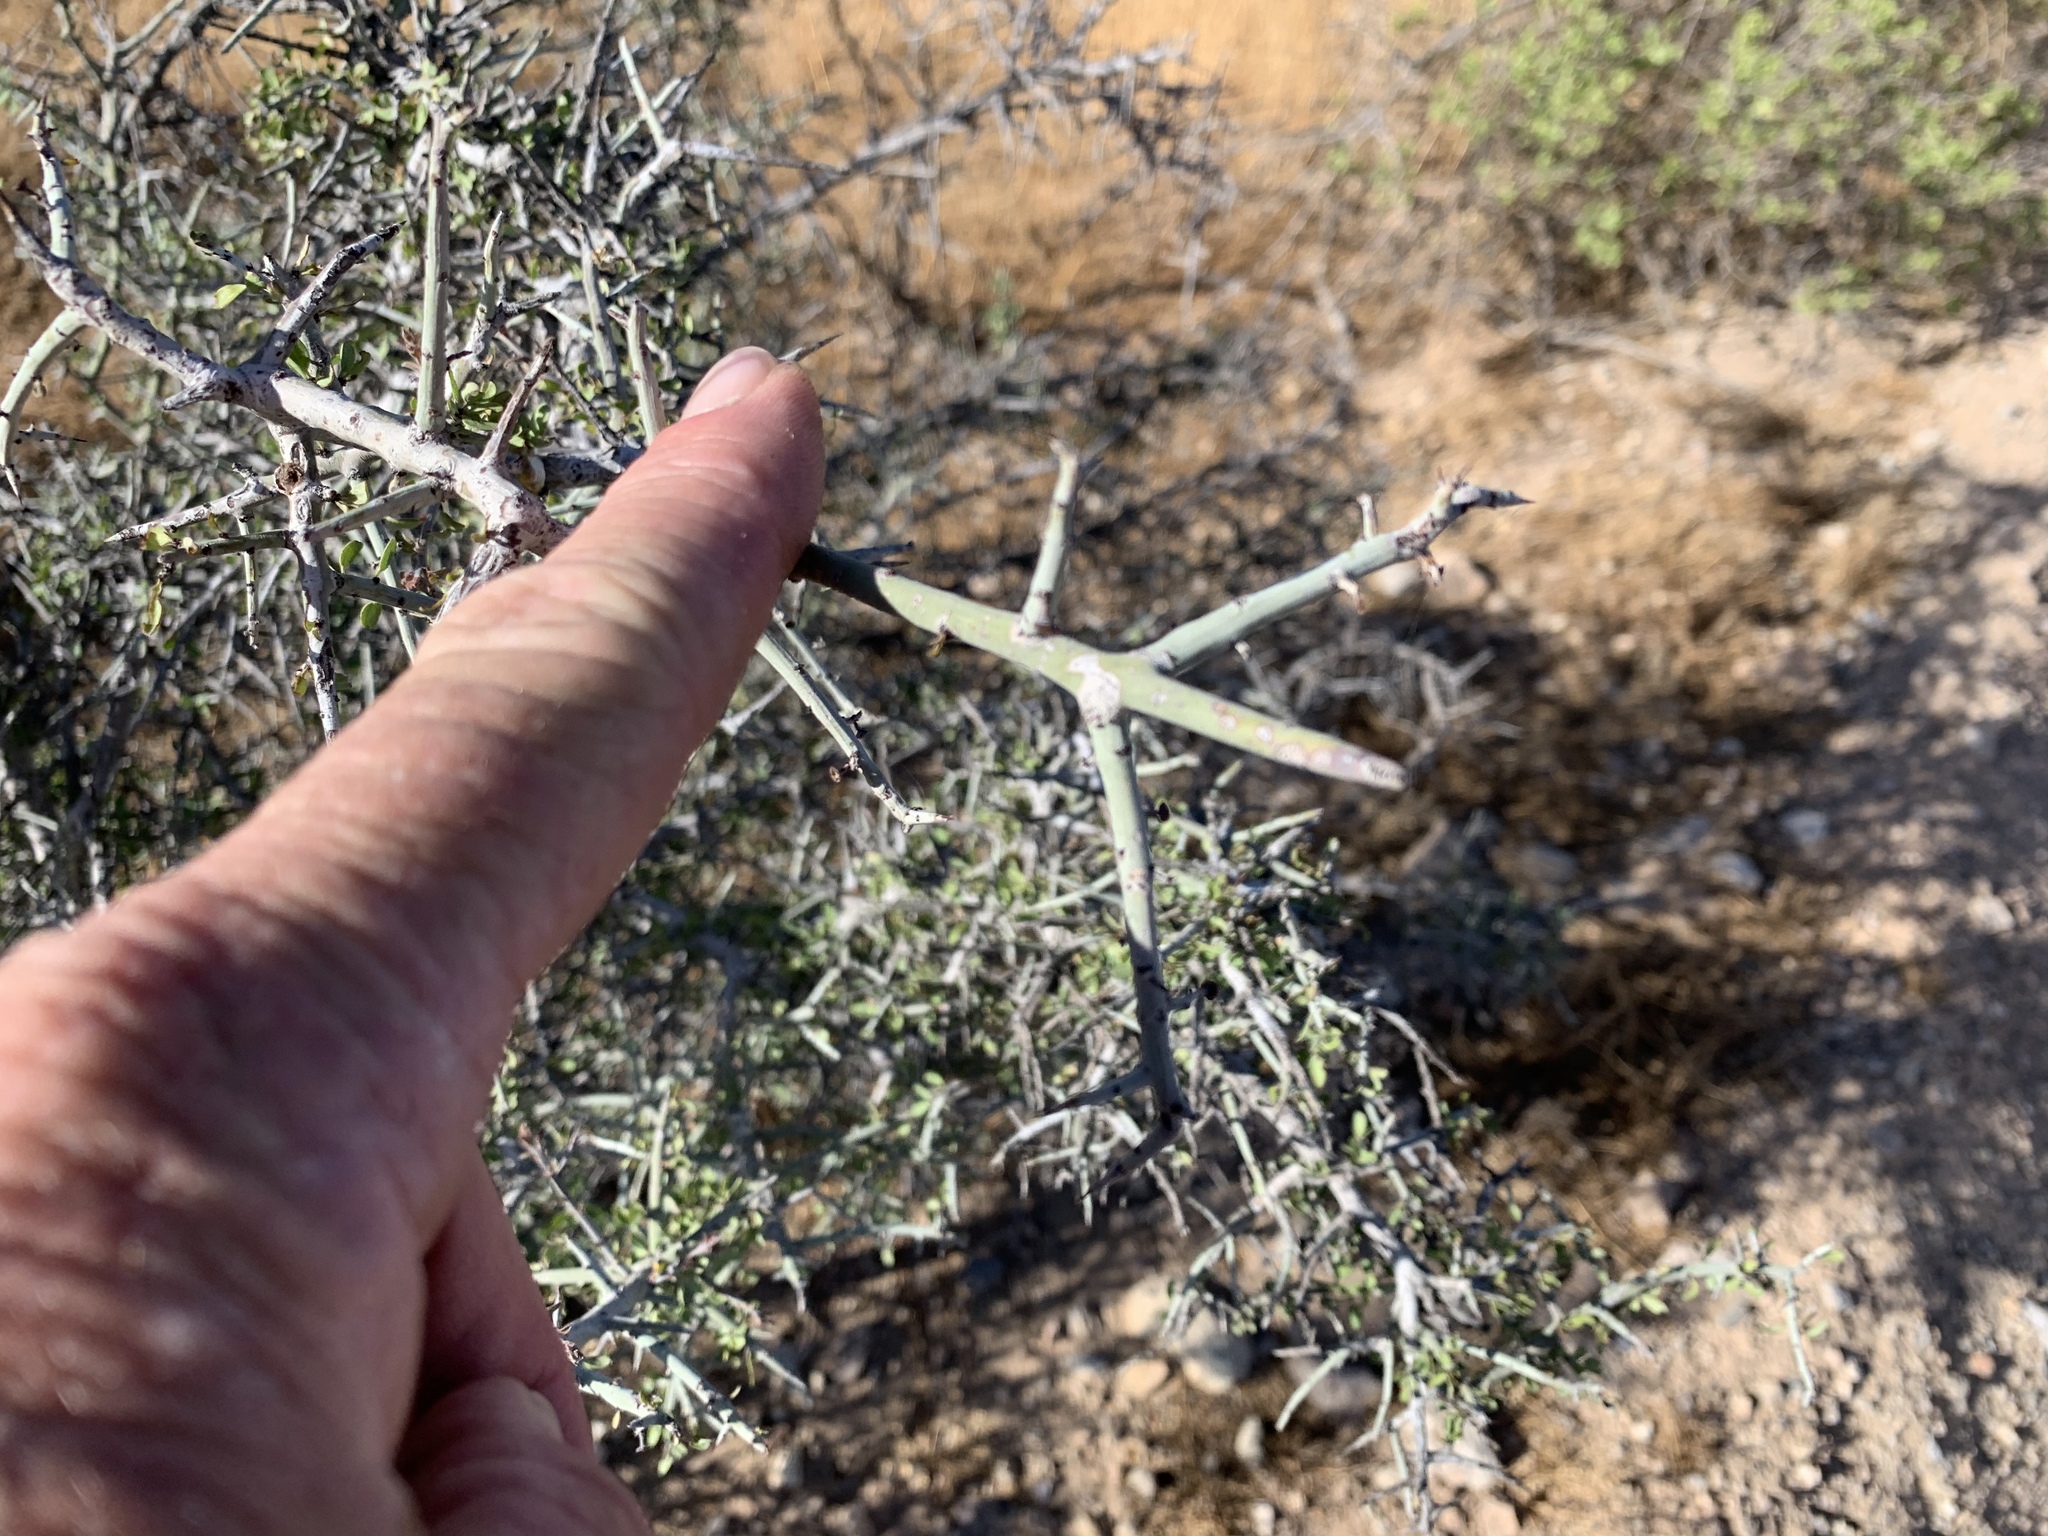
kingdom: Plantae
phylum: Tracheophyta
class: Magnoliopsida
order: Rosales
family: Rhamnaceae
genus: Sarcomphalus
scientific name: Sarcomphalus obtusifolius
